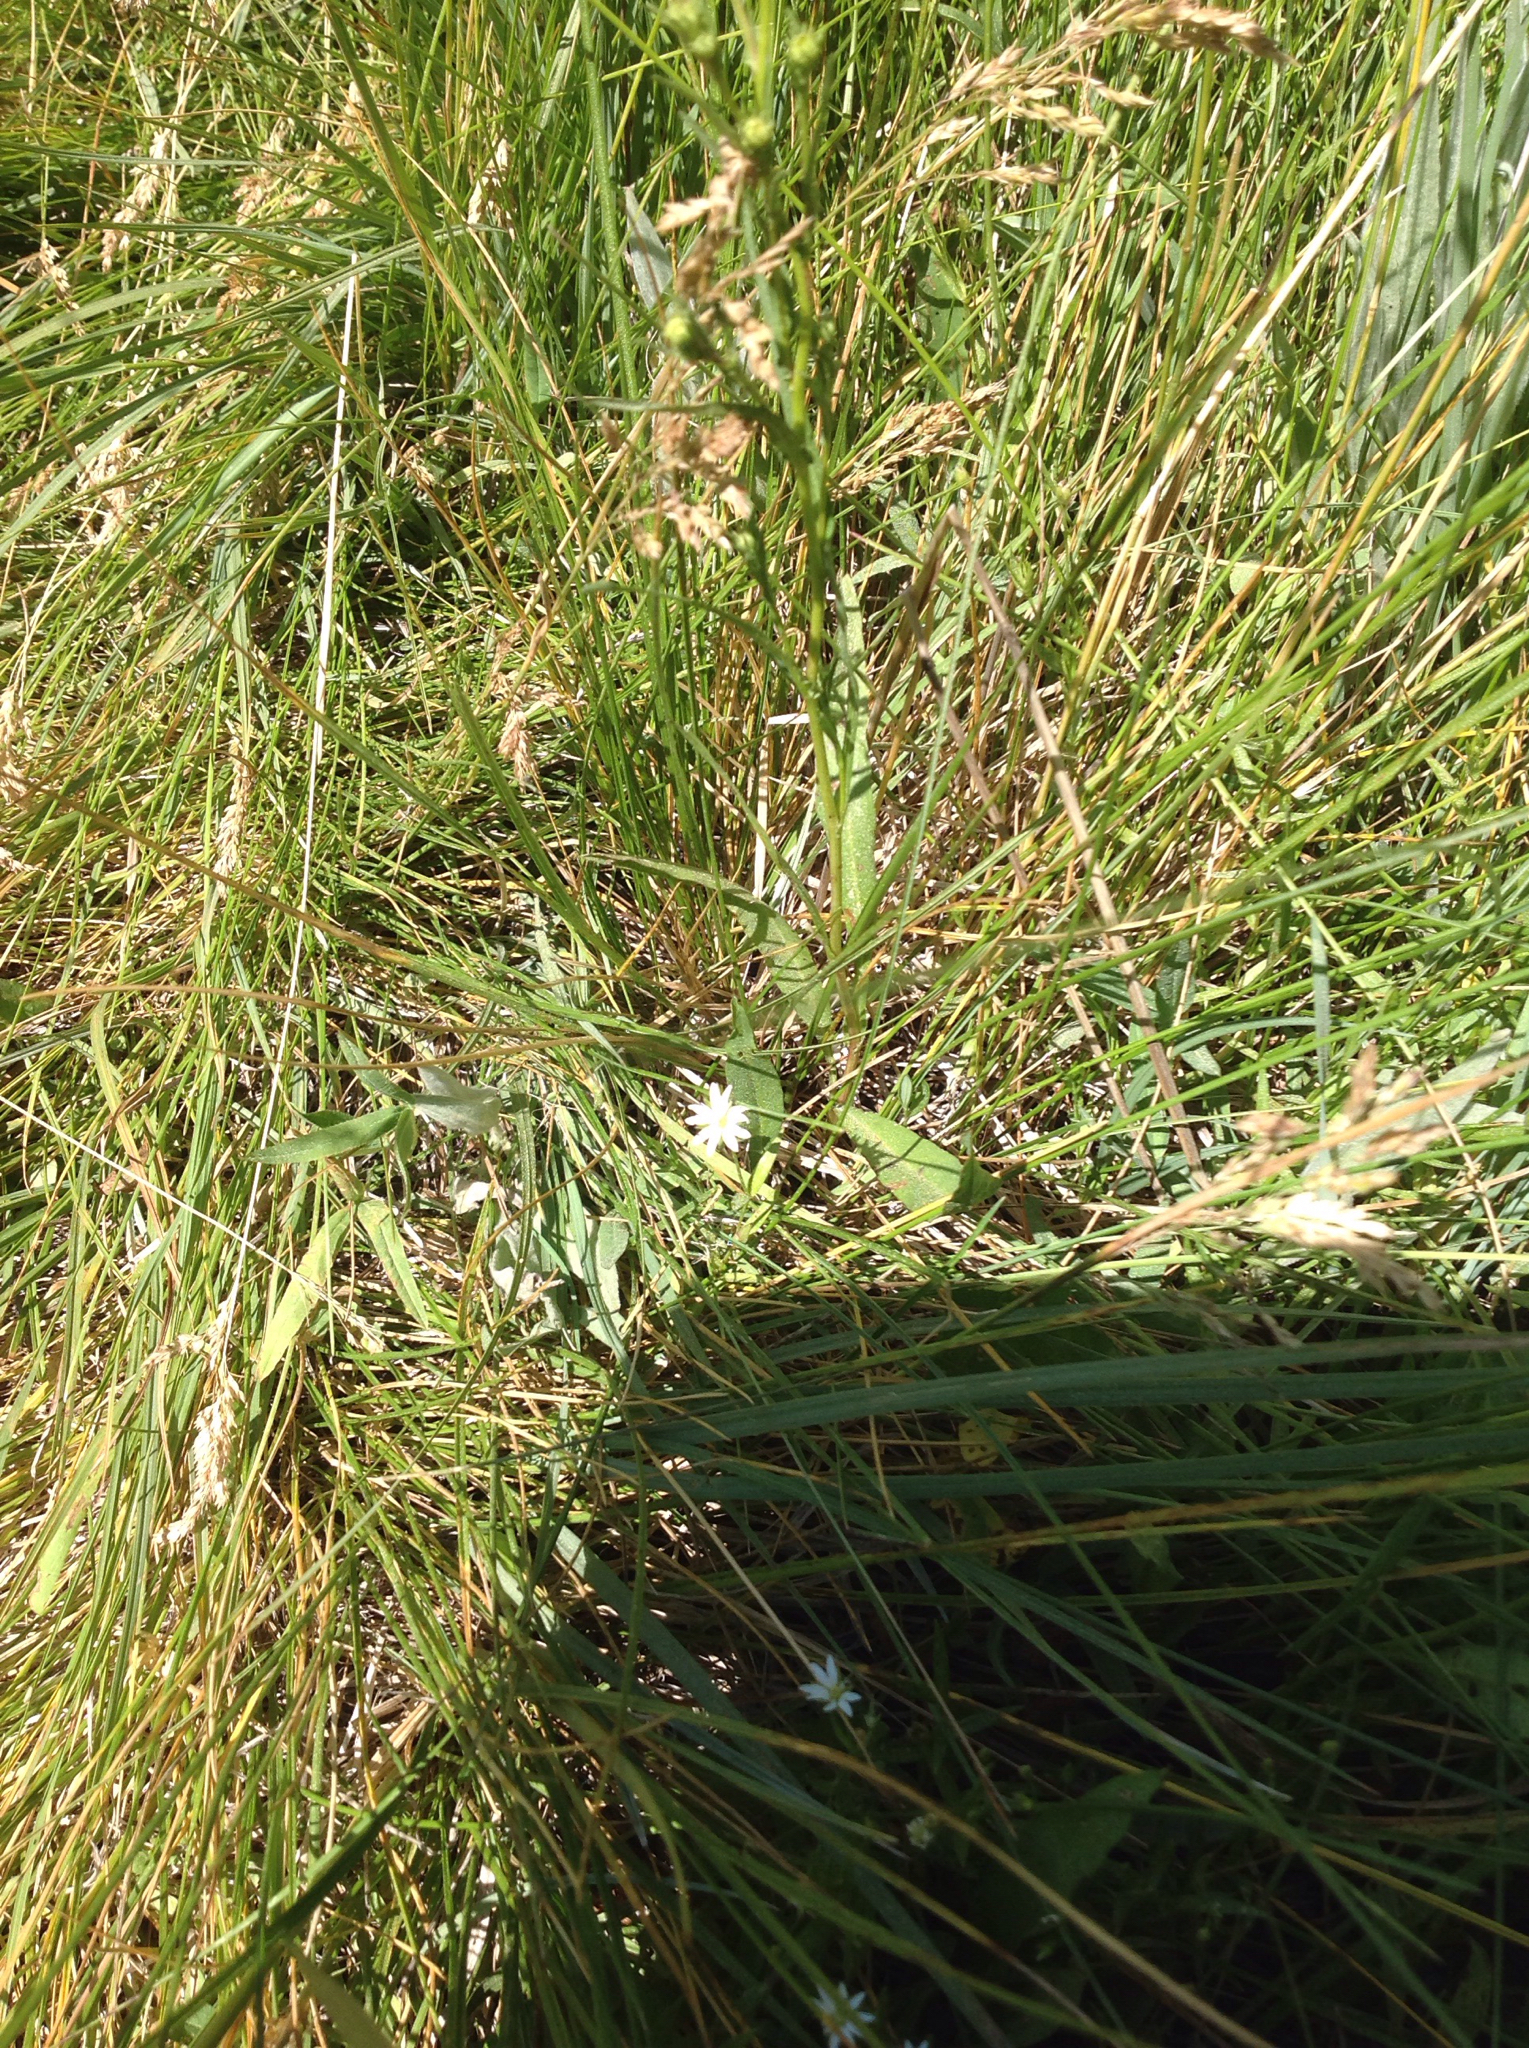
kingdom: Plantae
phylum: Tracheophyta
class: Magnoliopsida
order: Caryophyllales
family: Caryophyllaceae
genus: Stellaria
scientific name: Stellaria longipes
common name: Goldie's starwort
